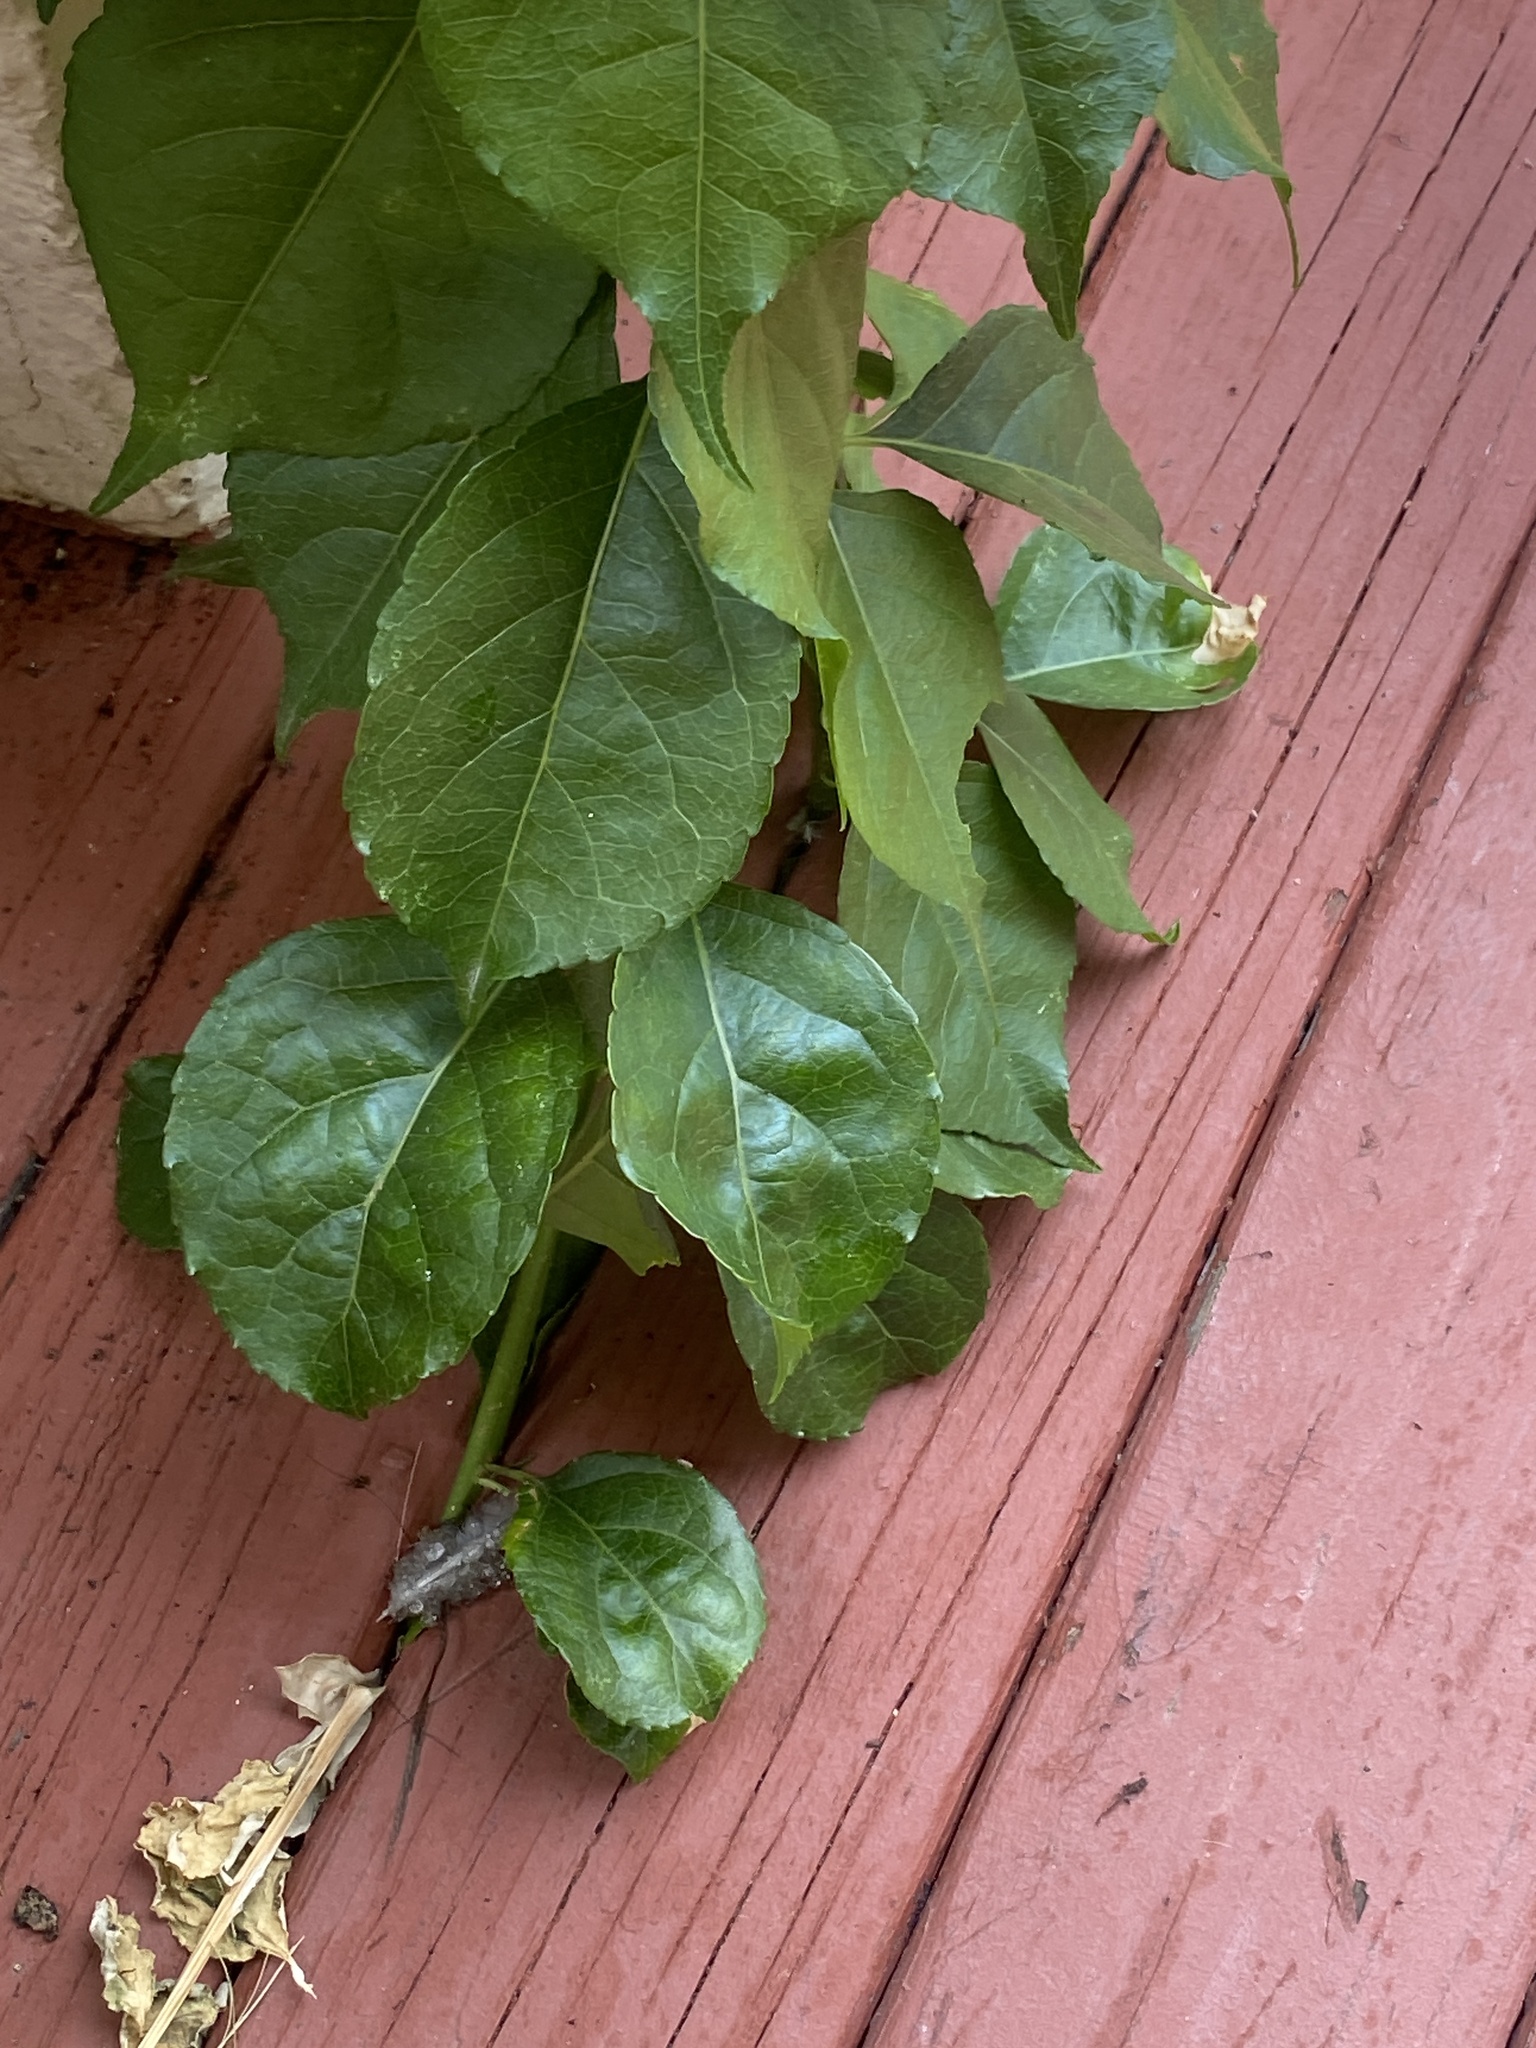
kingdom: Plantae
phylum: Tracheophyta
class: Magnoliopsida
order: Celastrales
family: Celastraceae
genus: Celastrus
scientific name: Celastrus orbiculatus
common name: Oriental bittersweet
